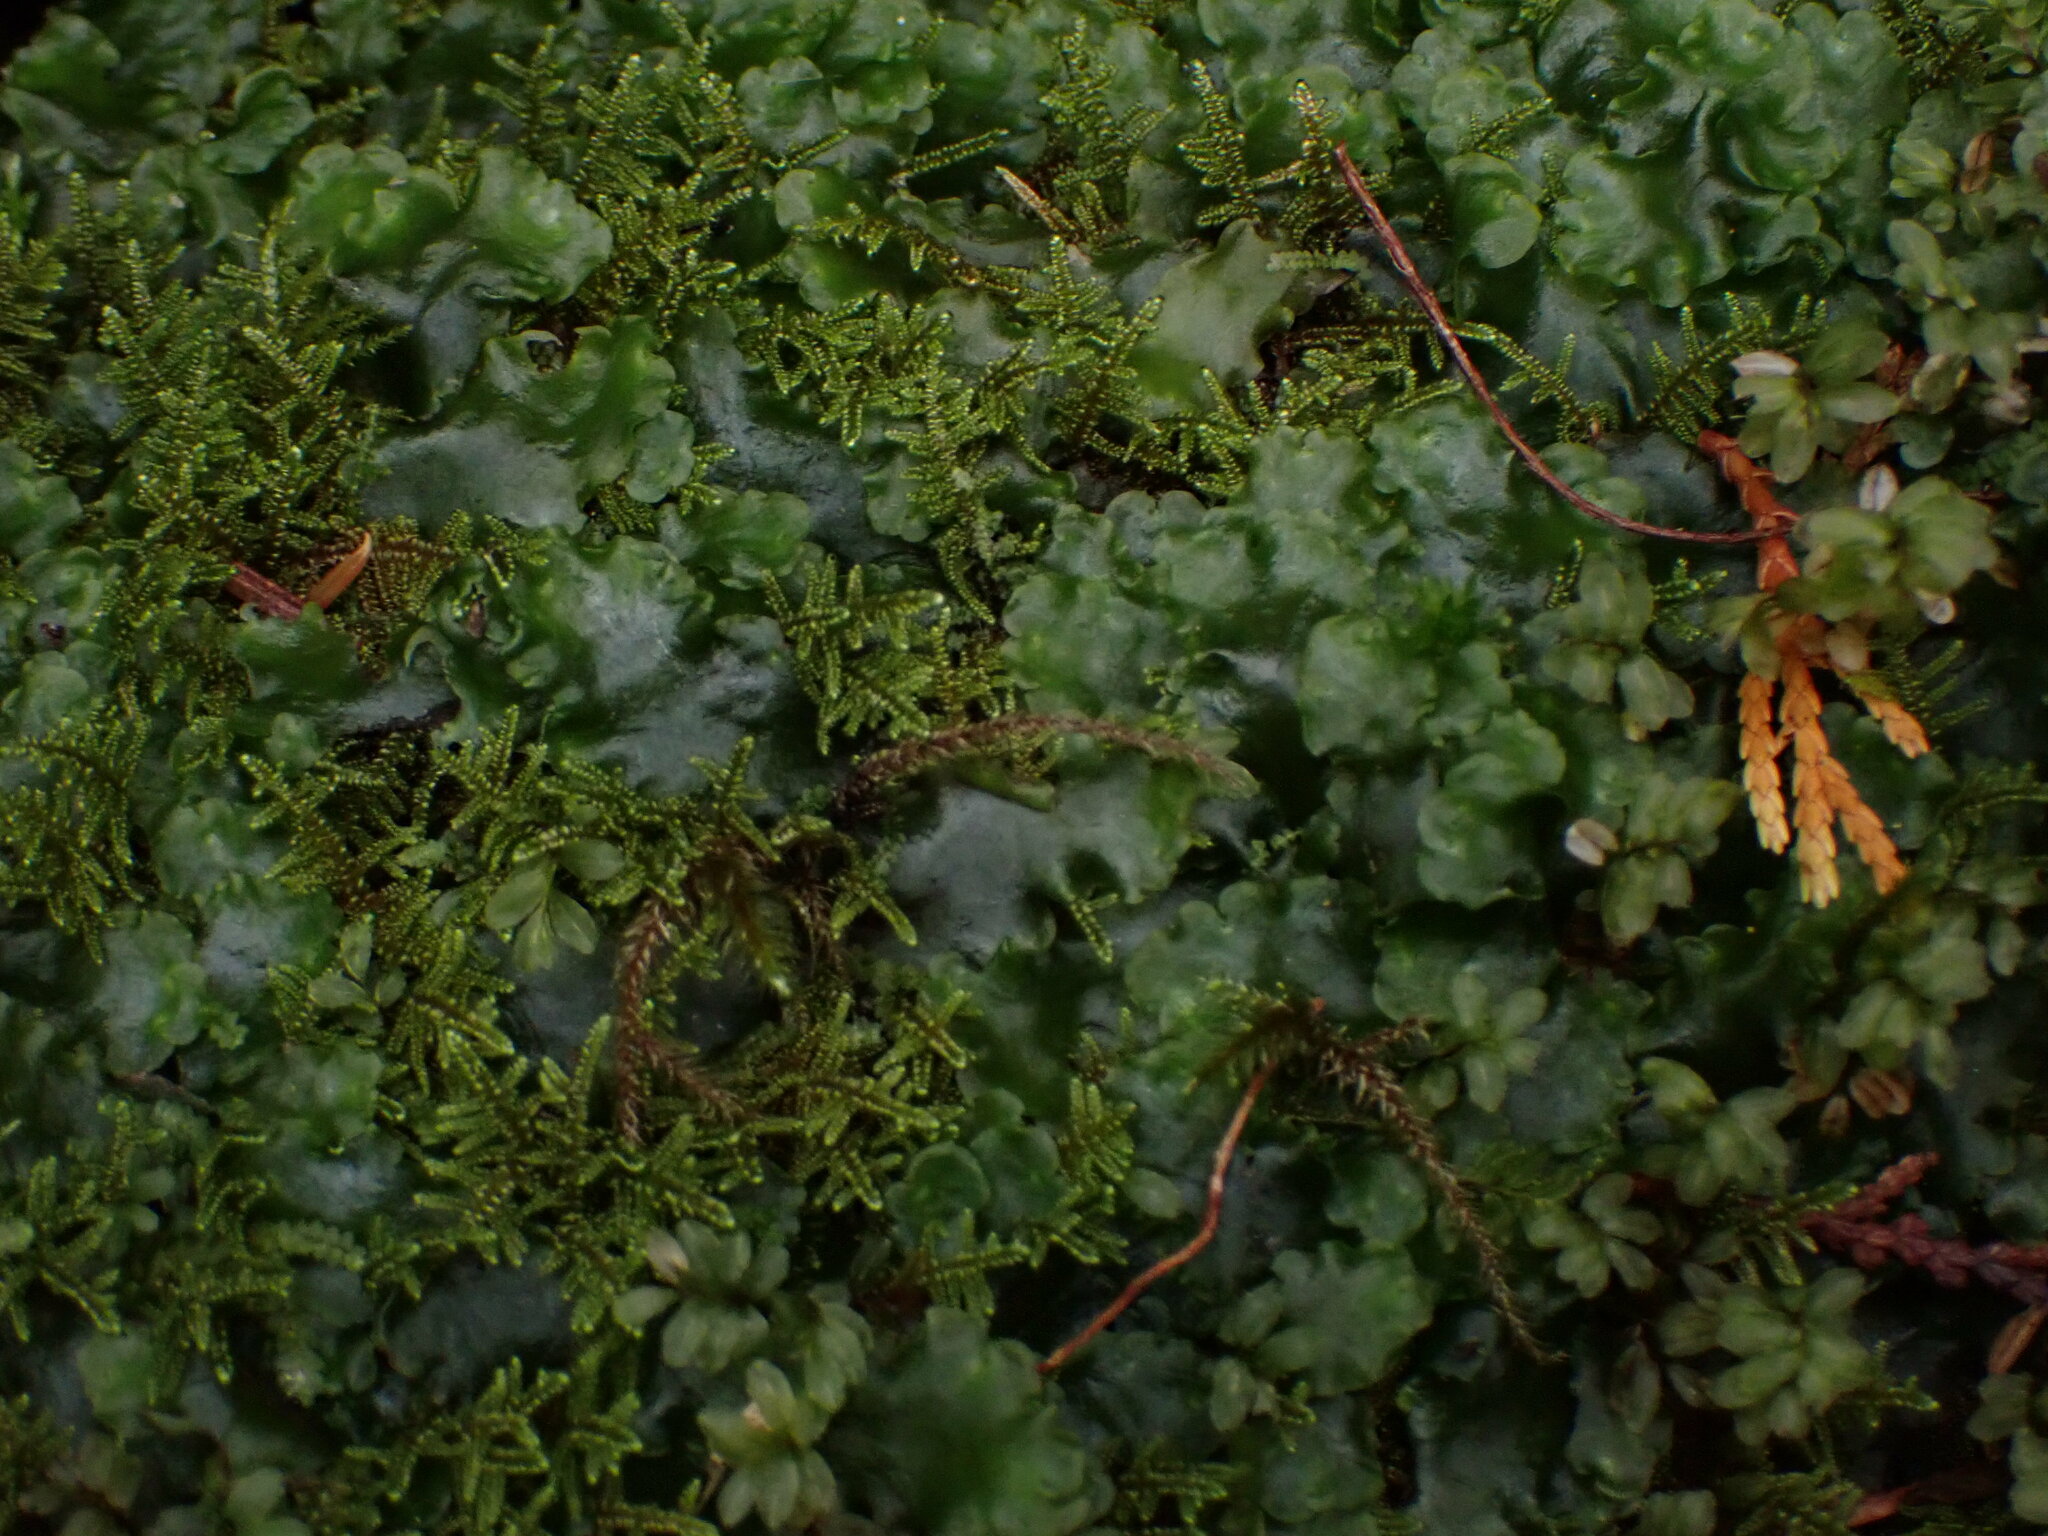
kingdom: Plantae
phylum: Marchantiophyta
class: Jungermanniopsida
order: Pelliales
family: Pelliaceae
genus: Pellia
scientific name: Pellia neesiana
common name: Nees  pellia
